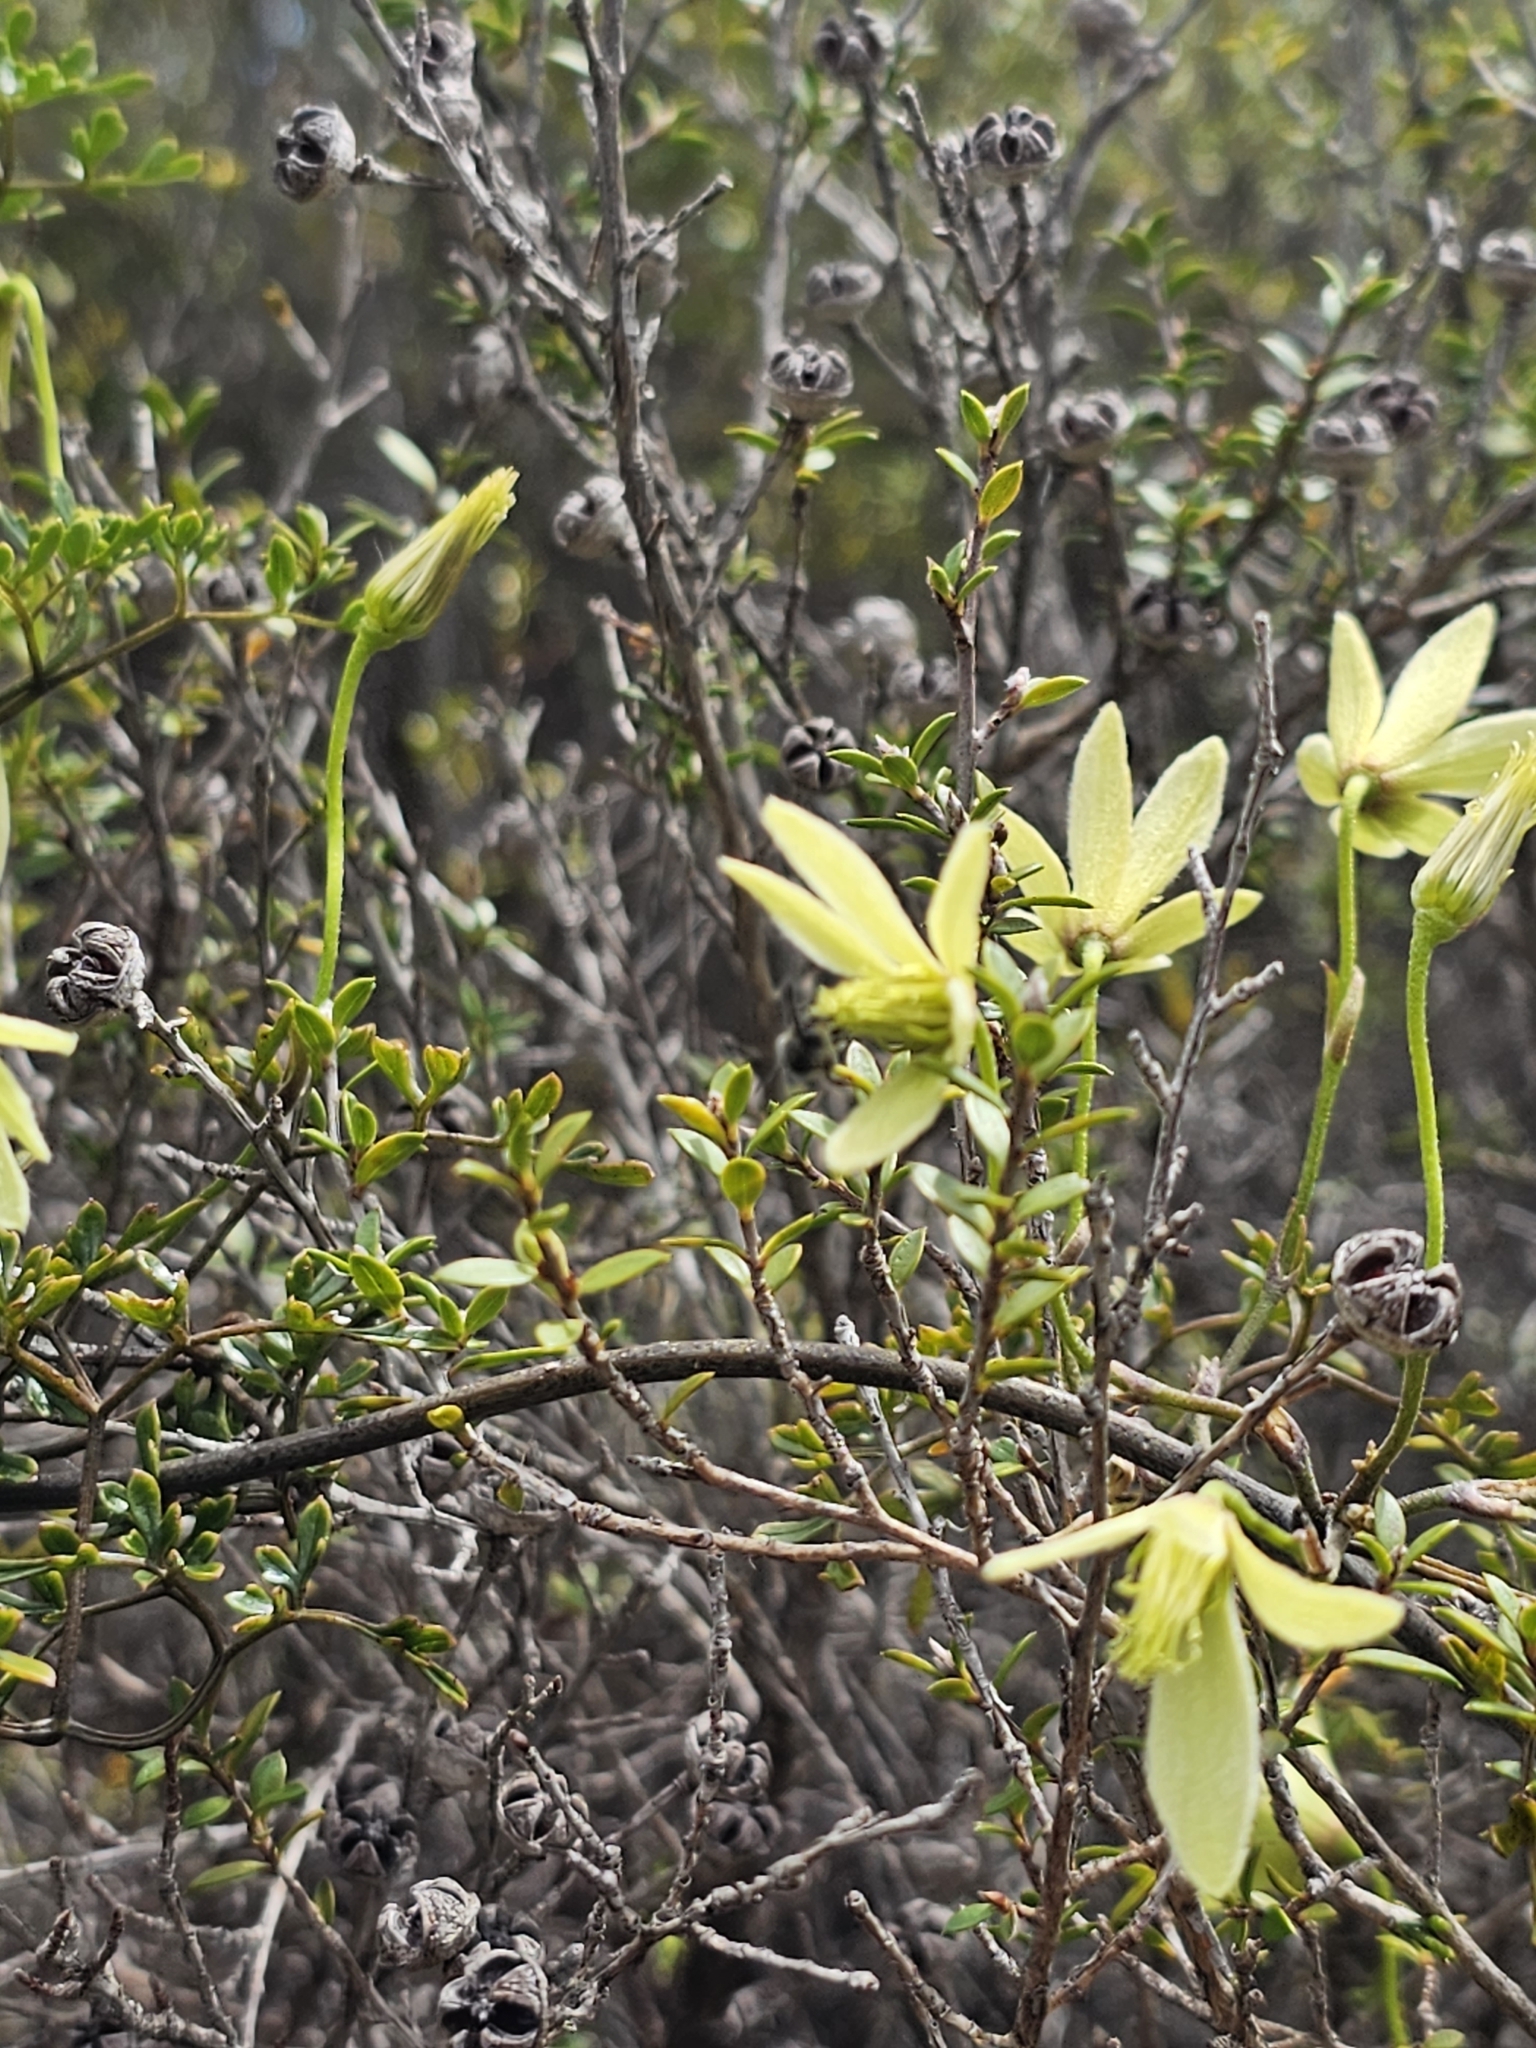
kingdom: Plantae
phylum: Tracheophyta
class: Magnoliopsida
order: Ranunculales
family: Ranunculaceae
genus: Clematis
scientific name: Clematis forsteri
